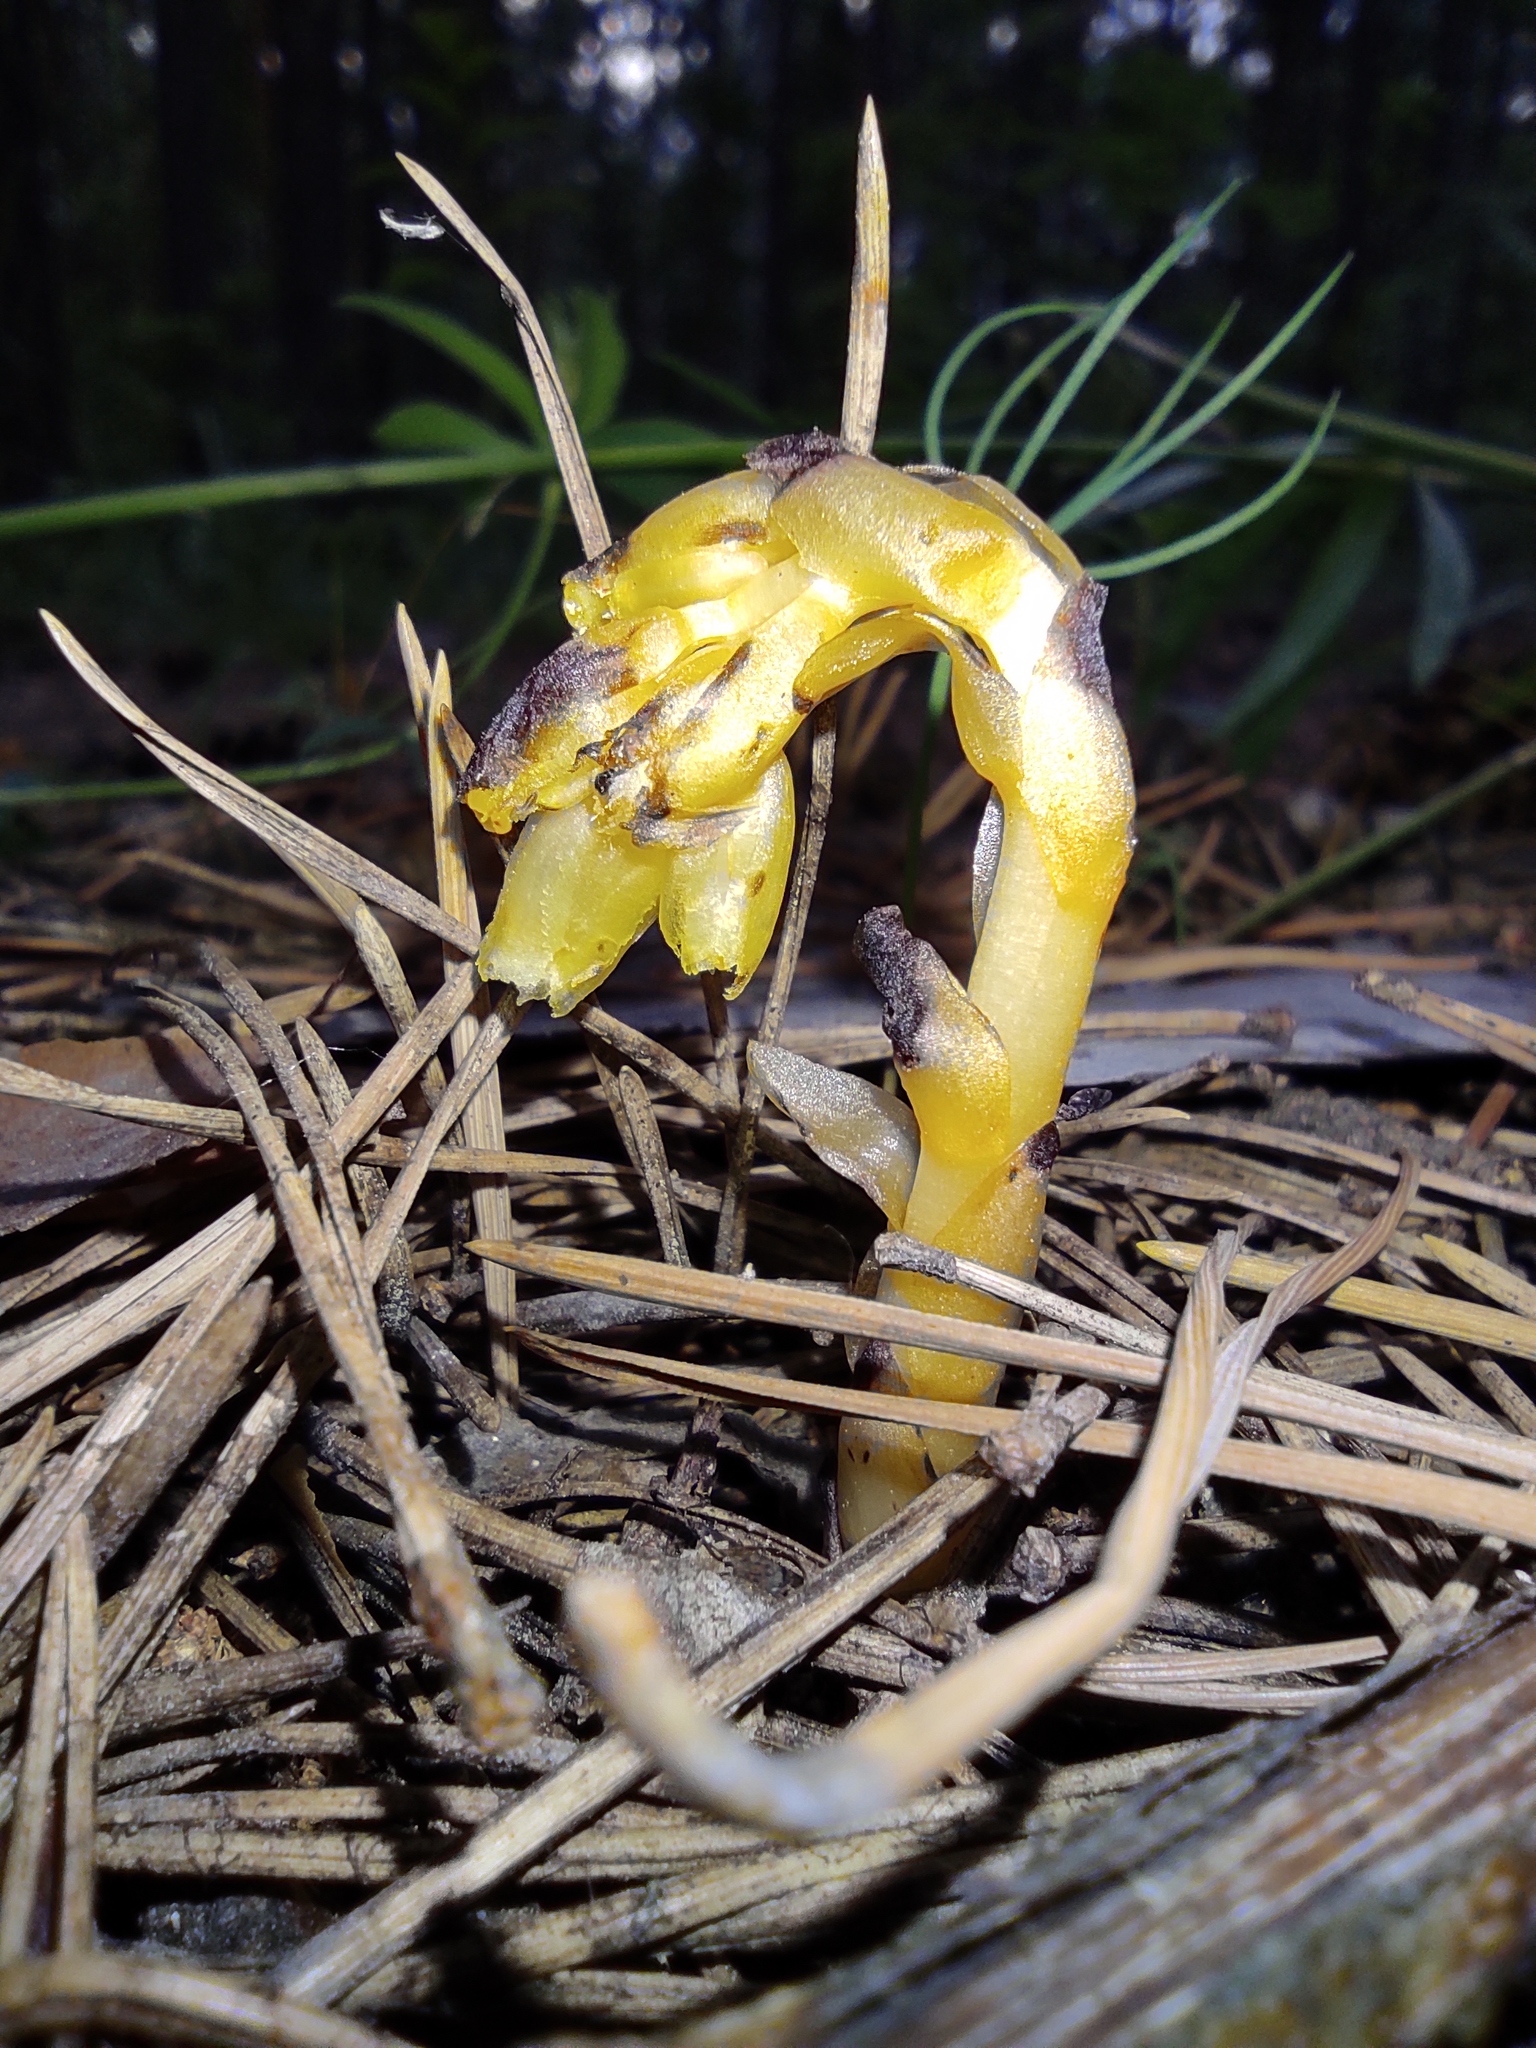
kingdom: Plantae
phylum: Tracheophyta
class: Magnoliopsida
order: Ericales
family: Ericaceae
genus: Hypopitys
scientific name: Hypopitys monotropa
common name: Yellow bird's-nest
